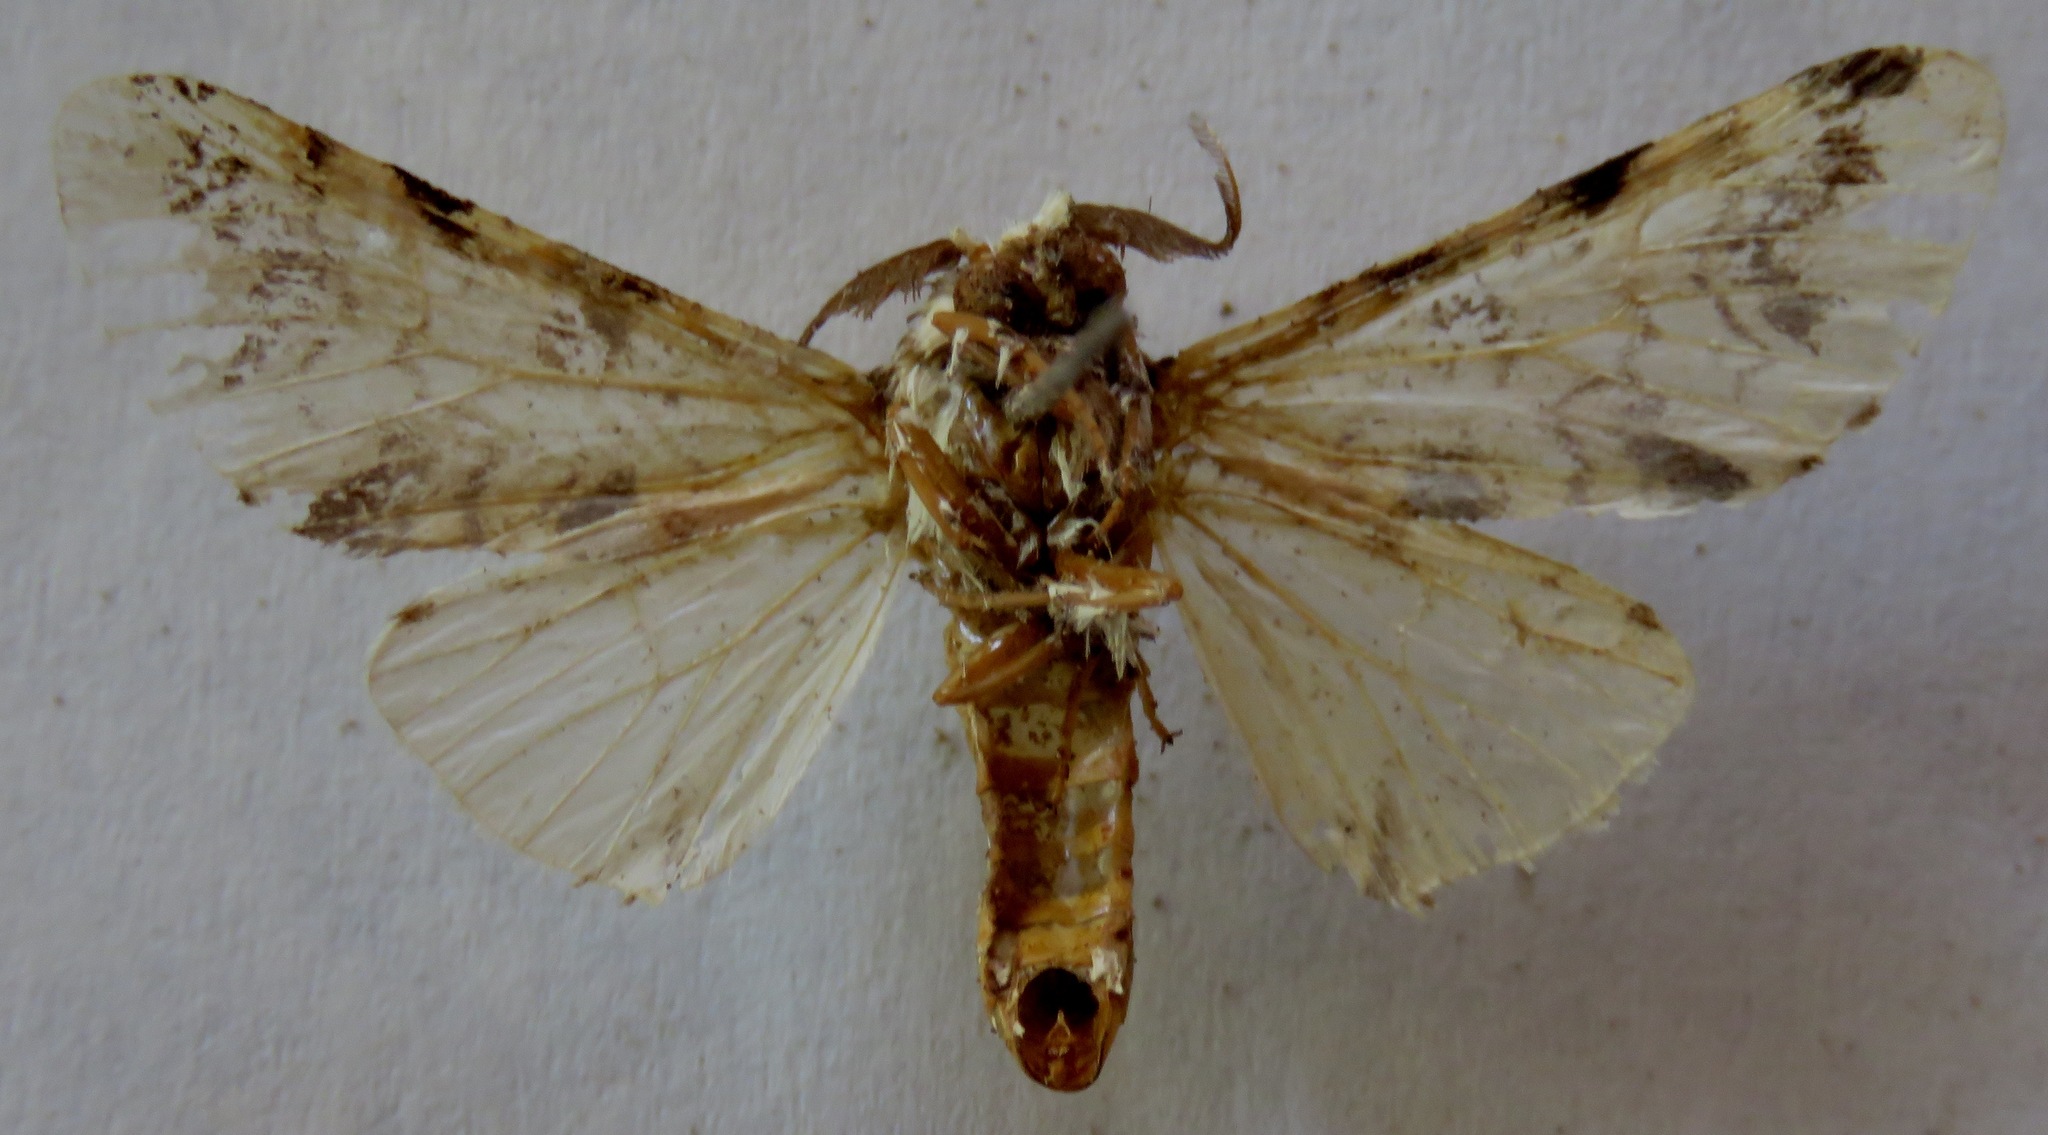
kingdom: Animalia
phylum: Arthropoda
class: Insecta
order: Lepidoptera
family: Notodontidae
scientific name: Notodontidae
